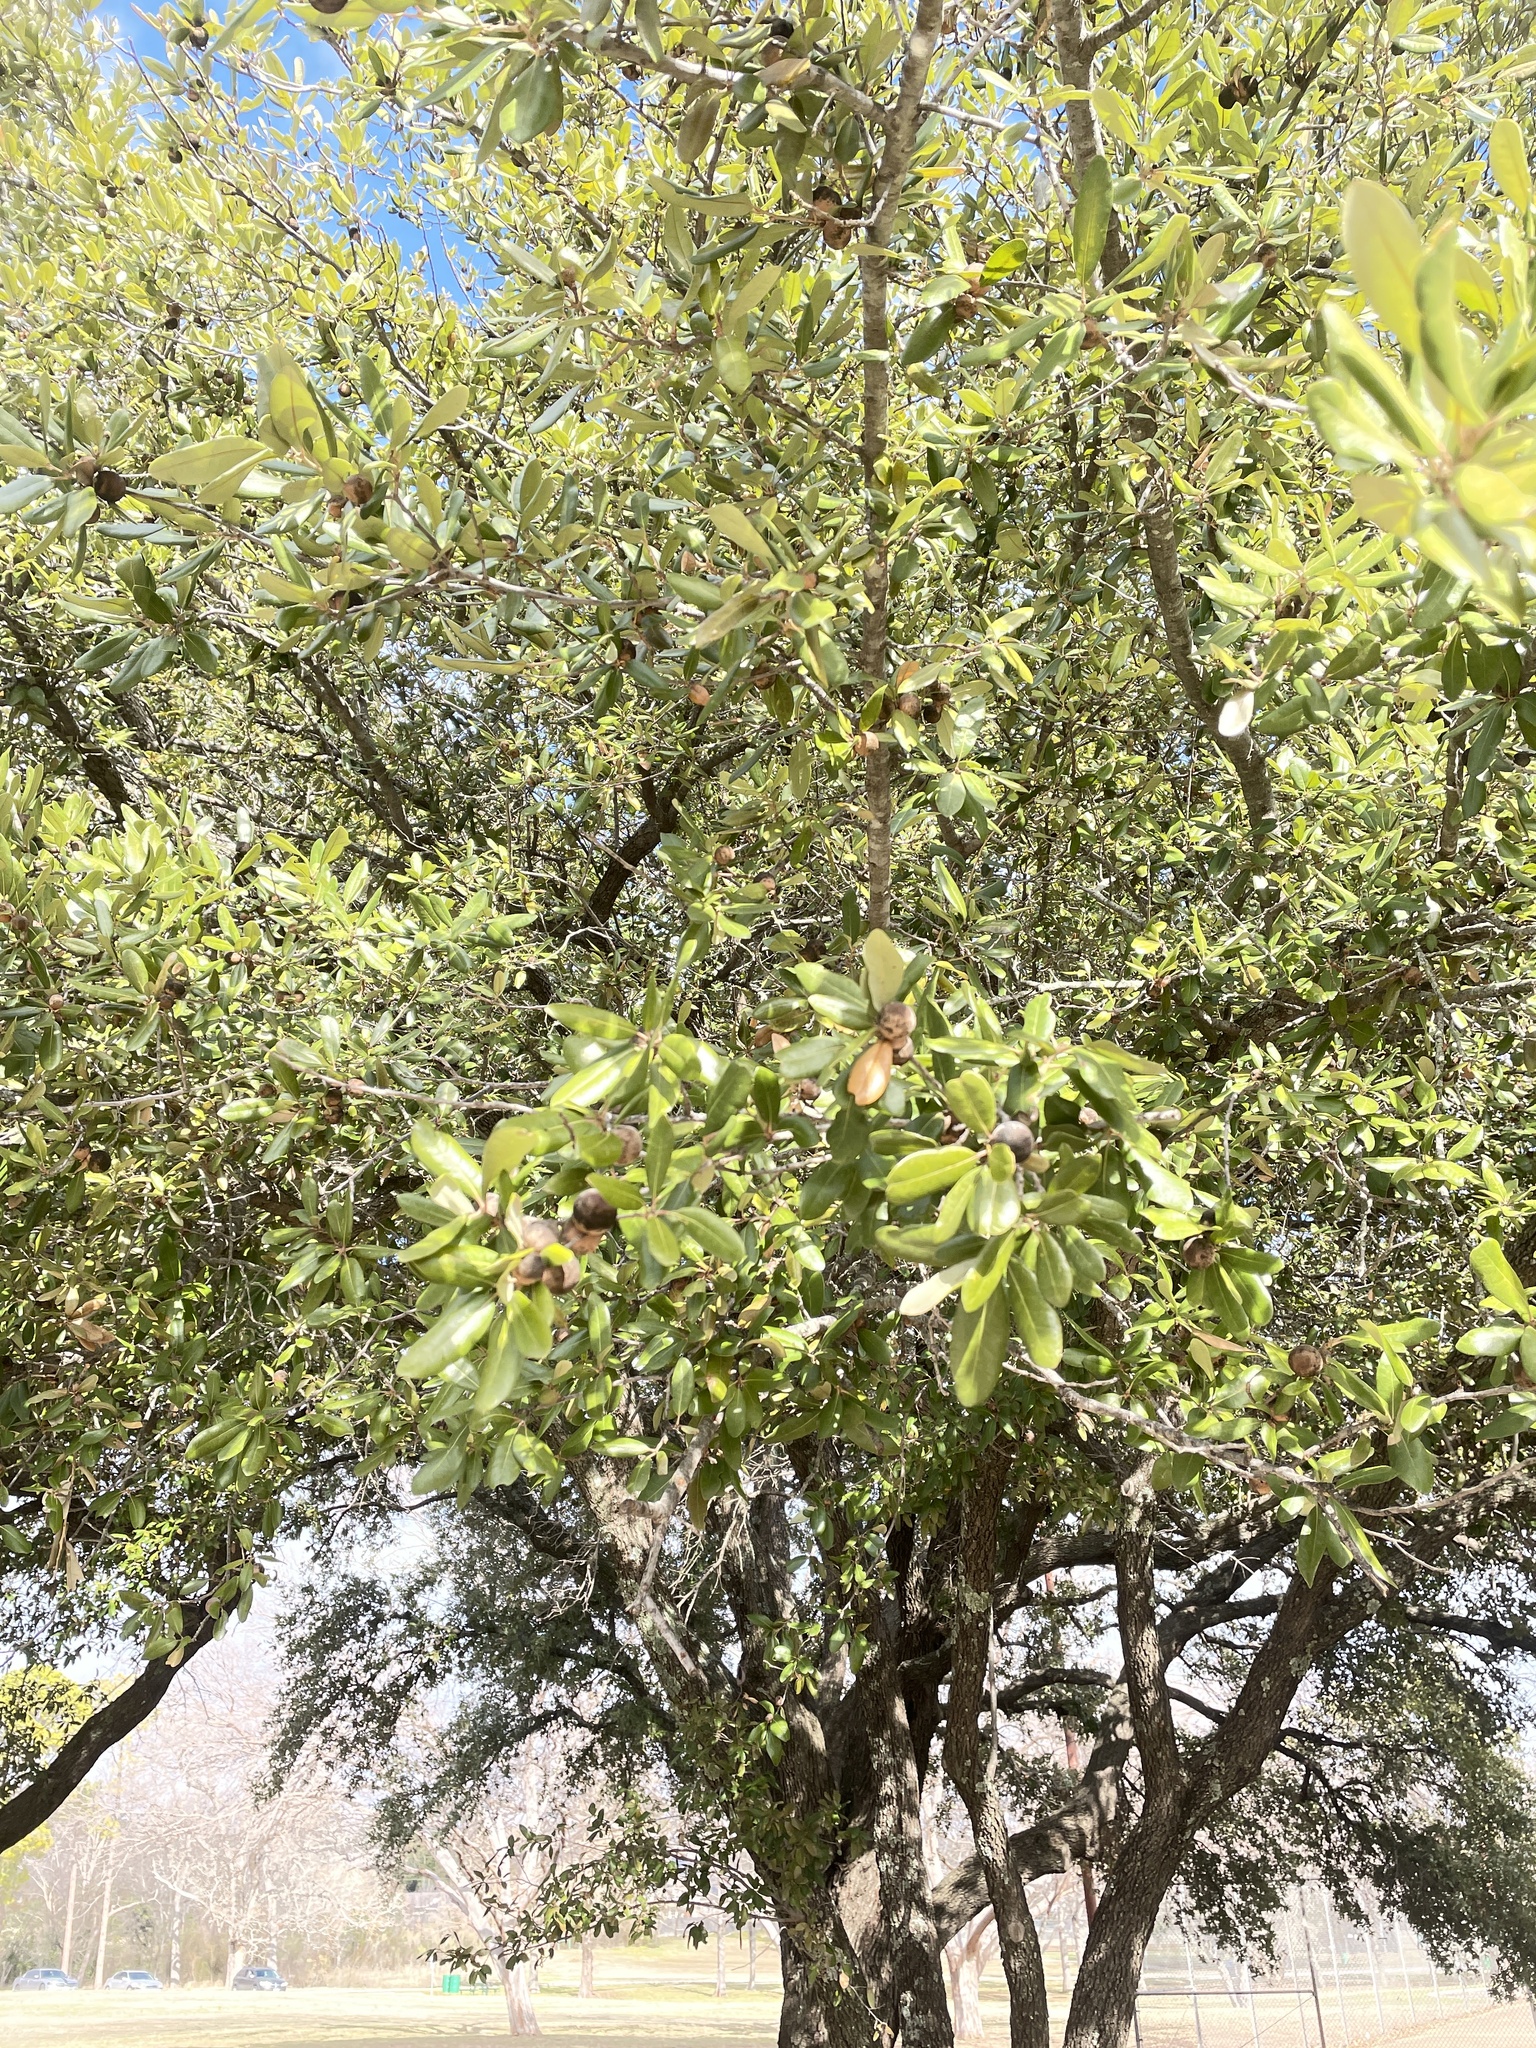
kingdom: Animalia
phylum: Arthropoda
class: Insecta
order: Hymenoptera
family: Cynipidae
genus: Disholcaspis
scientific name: Disholcaspis
